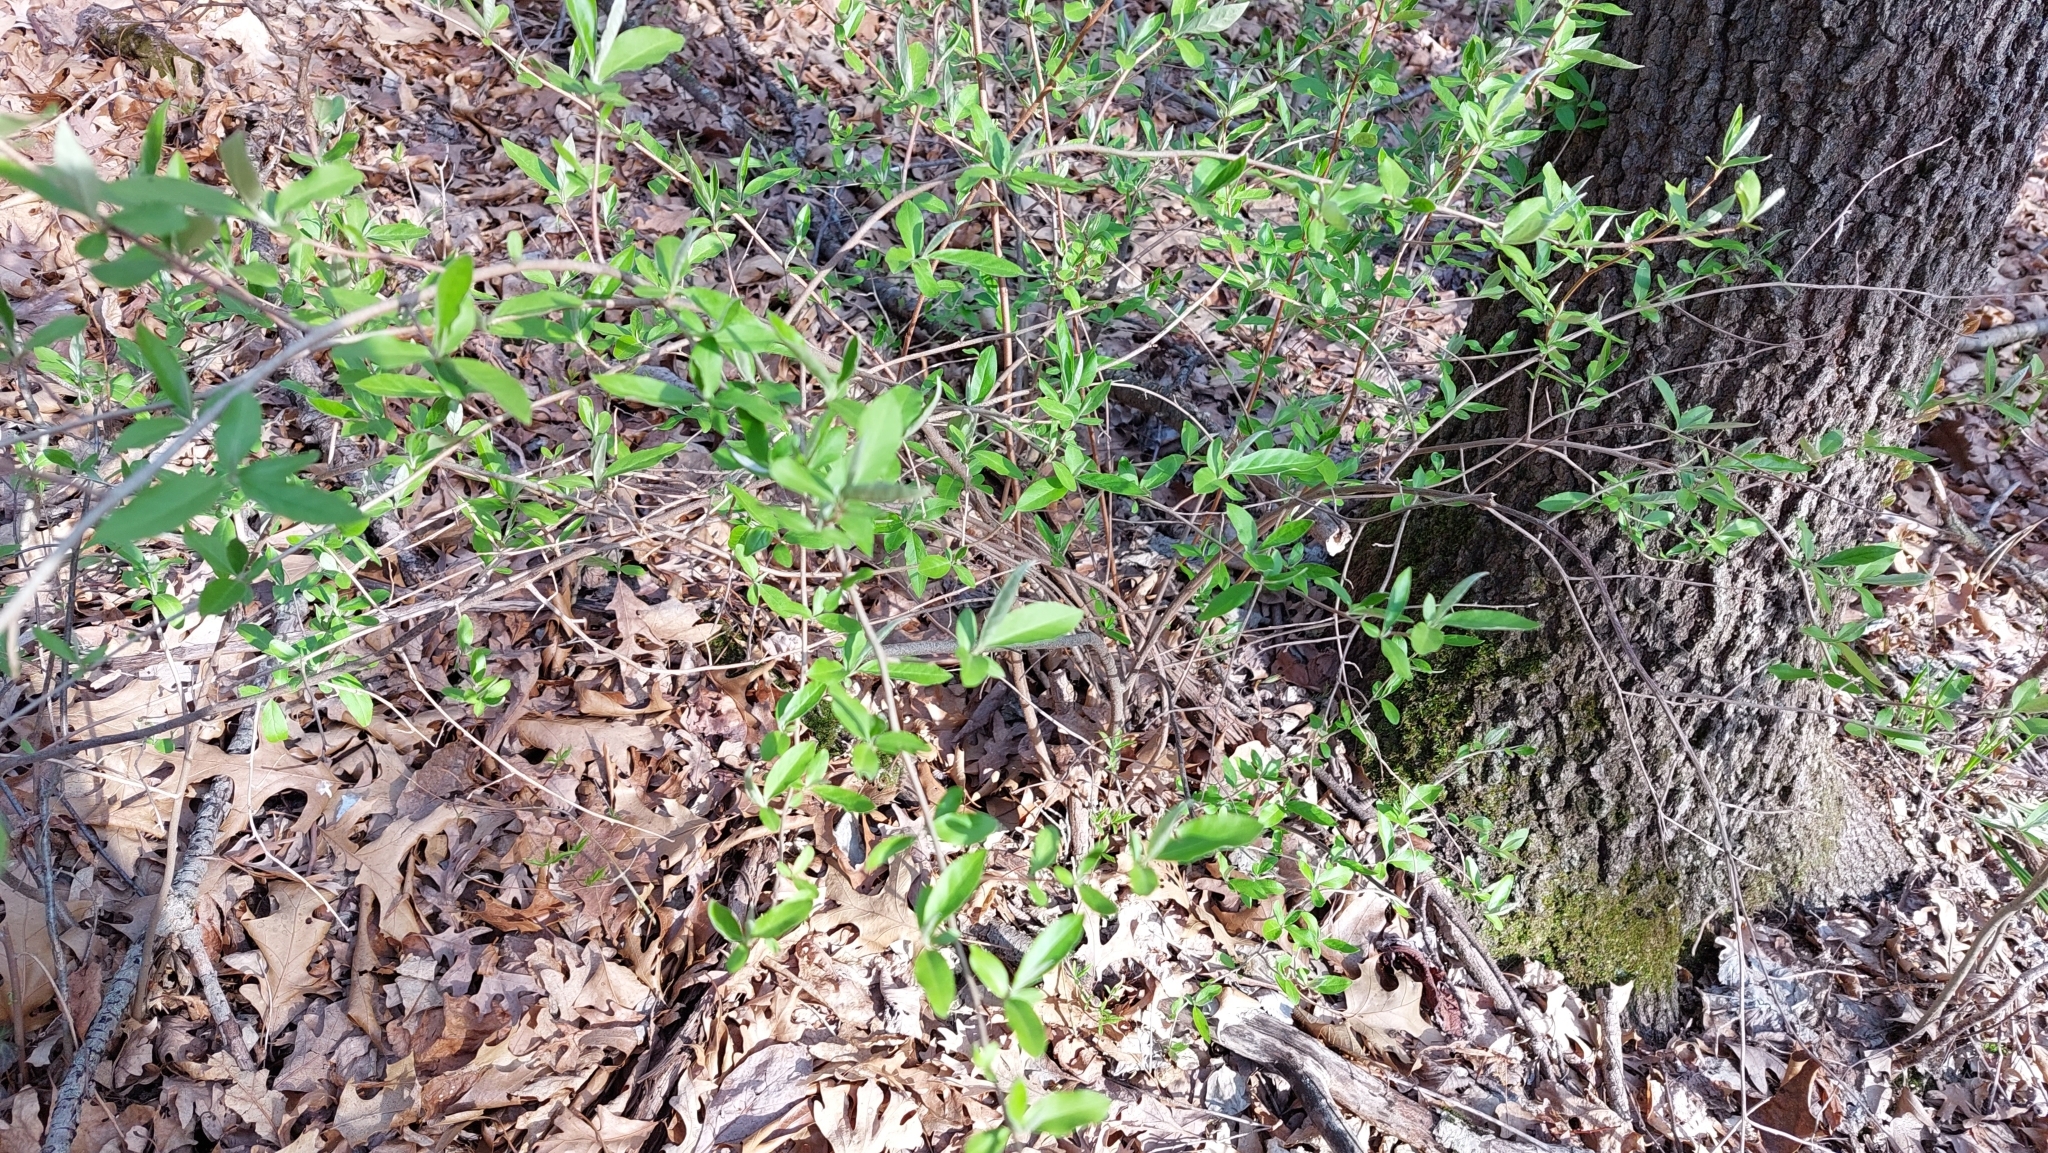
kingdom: Plantae
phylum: Tracheophyta
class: Magnoliopsida
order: Rosales
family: Elaeagnaceae
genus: Elaeagnus
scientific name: Elaeagnus umbellata
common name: Autumn olive
